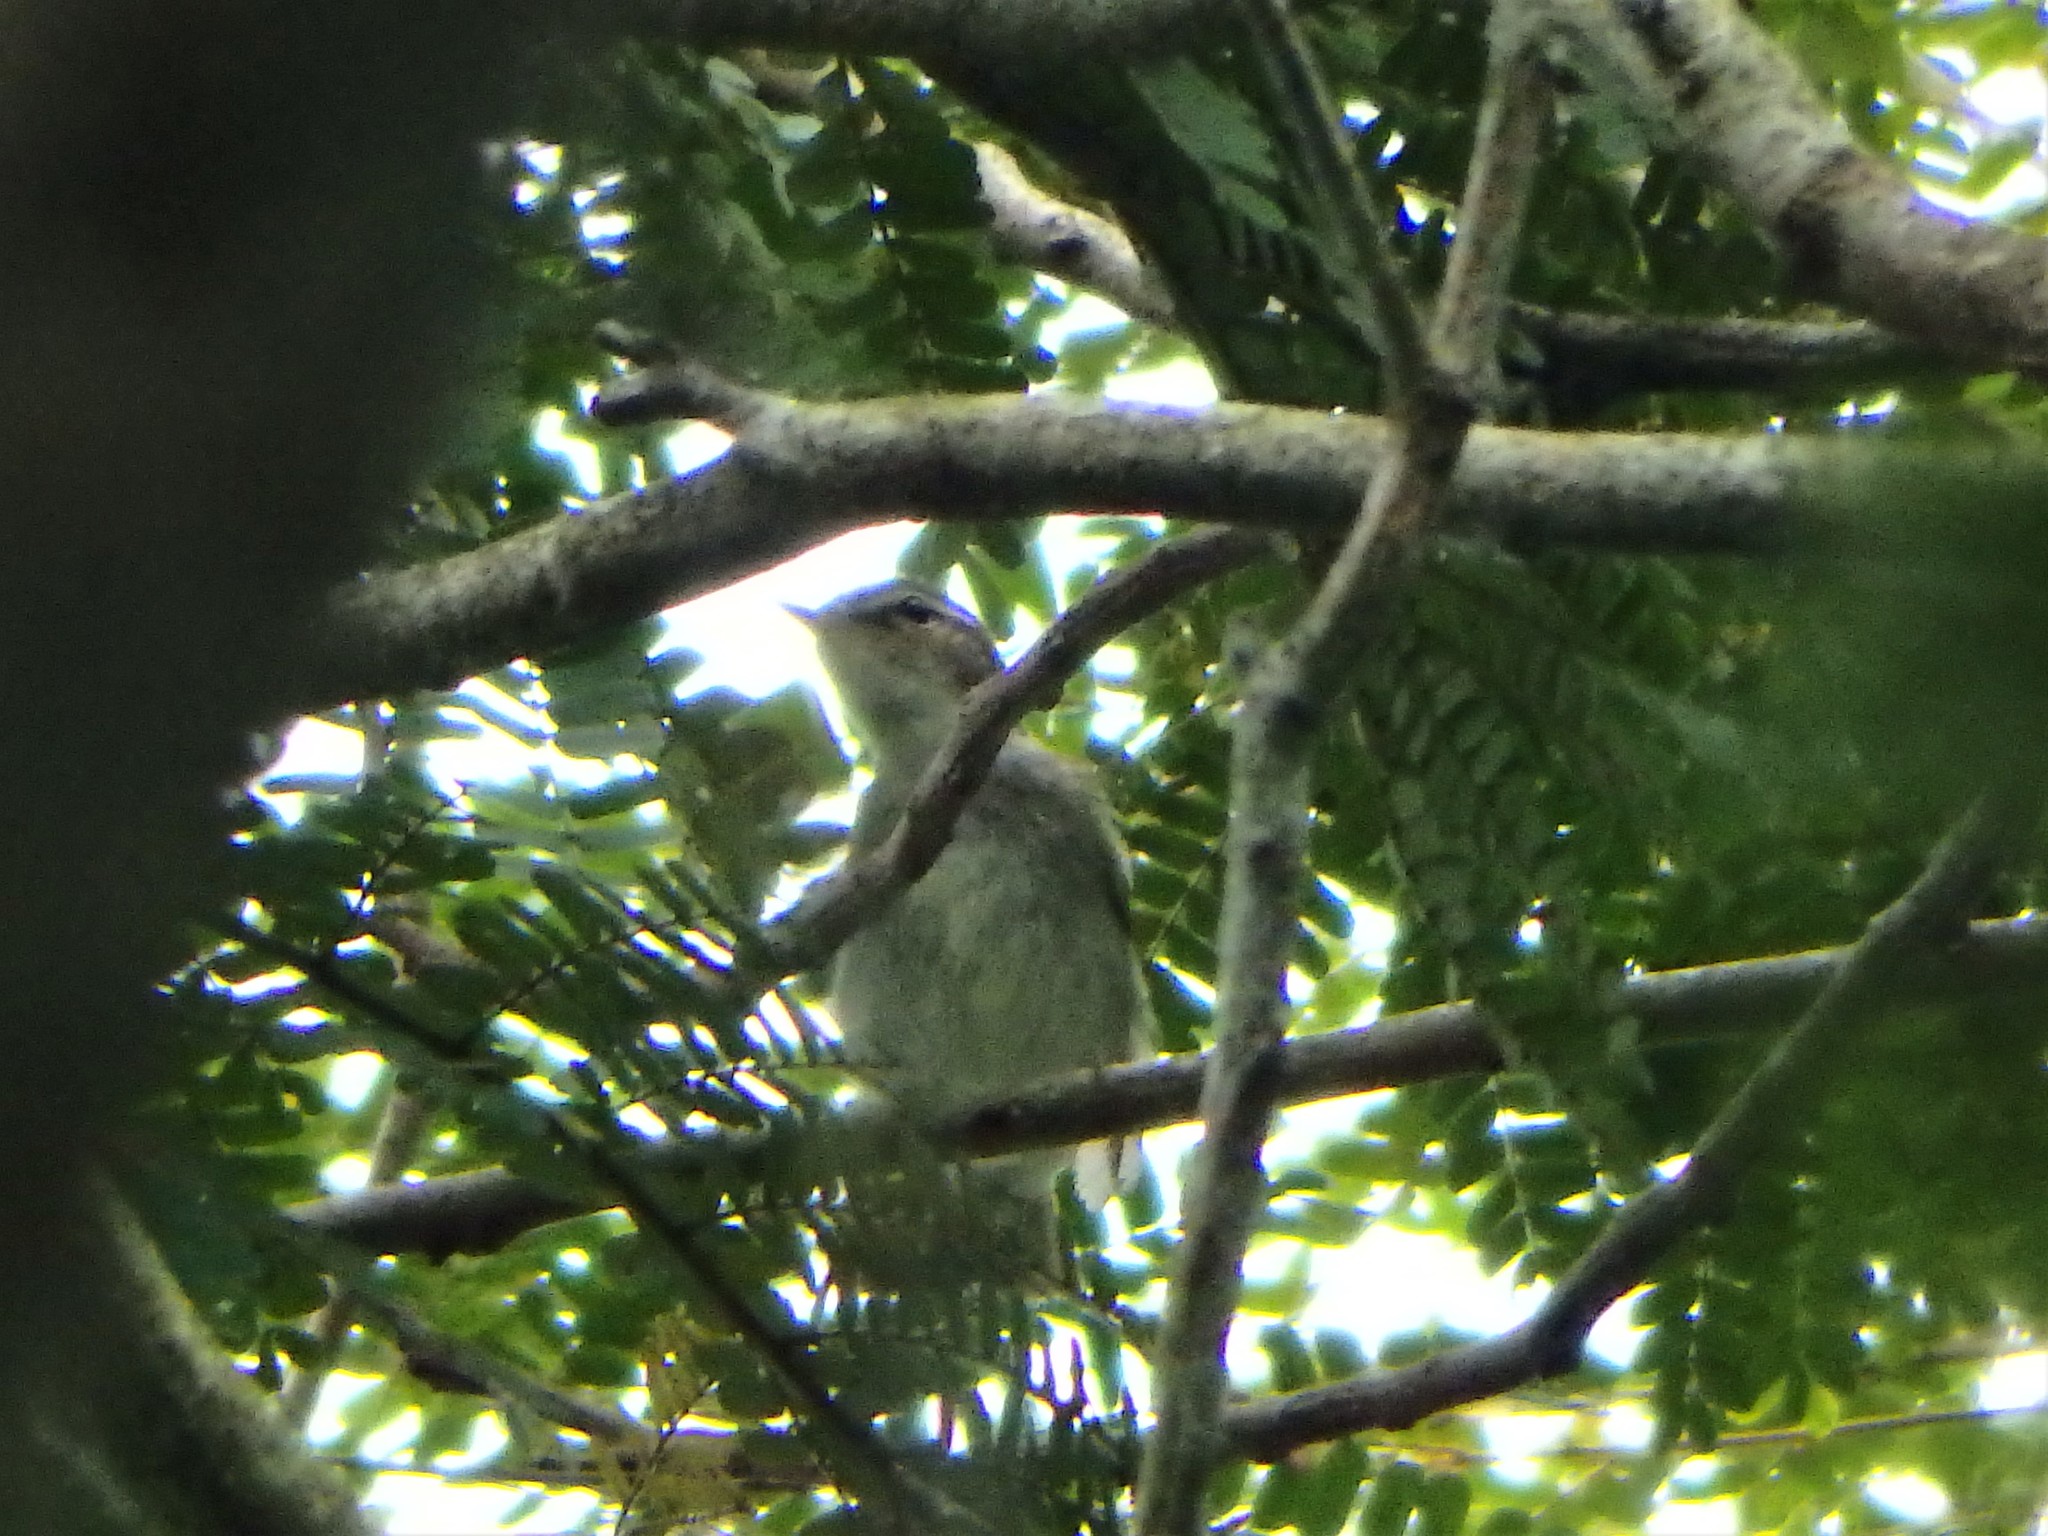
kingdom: Animalia
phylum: Chordata
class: Aves
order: Passeriformes
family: Phylloscopidae
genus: Phylloscopus
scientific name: Phylloscopus borealis
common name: Arctic warbler
